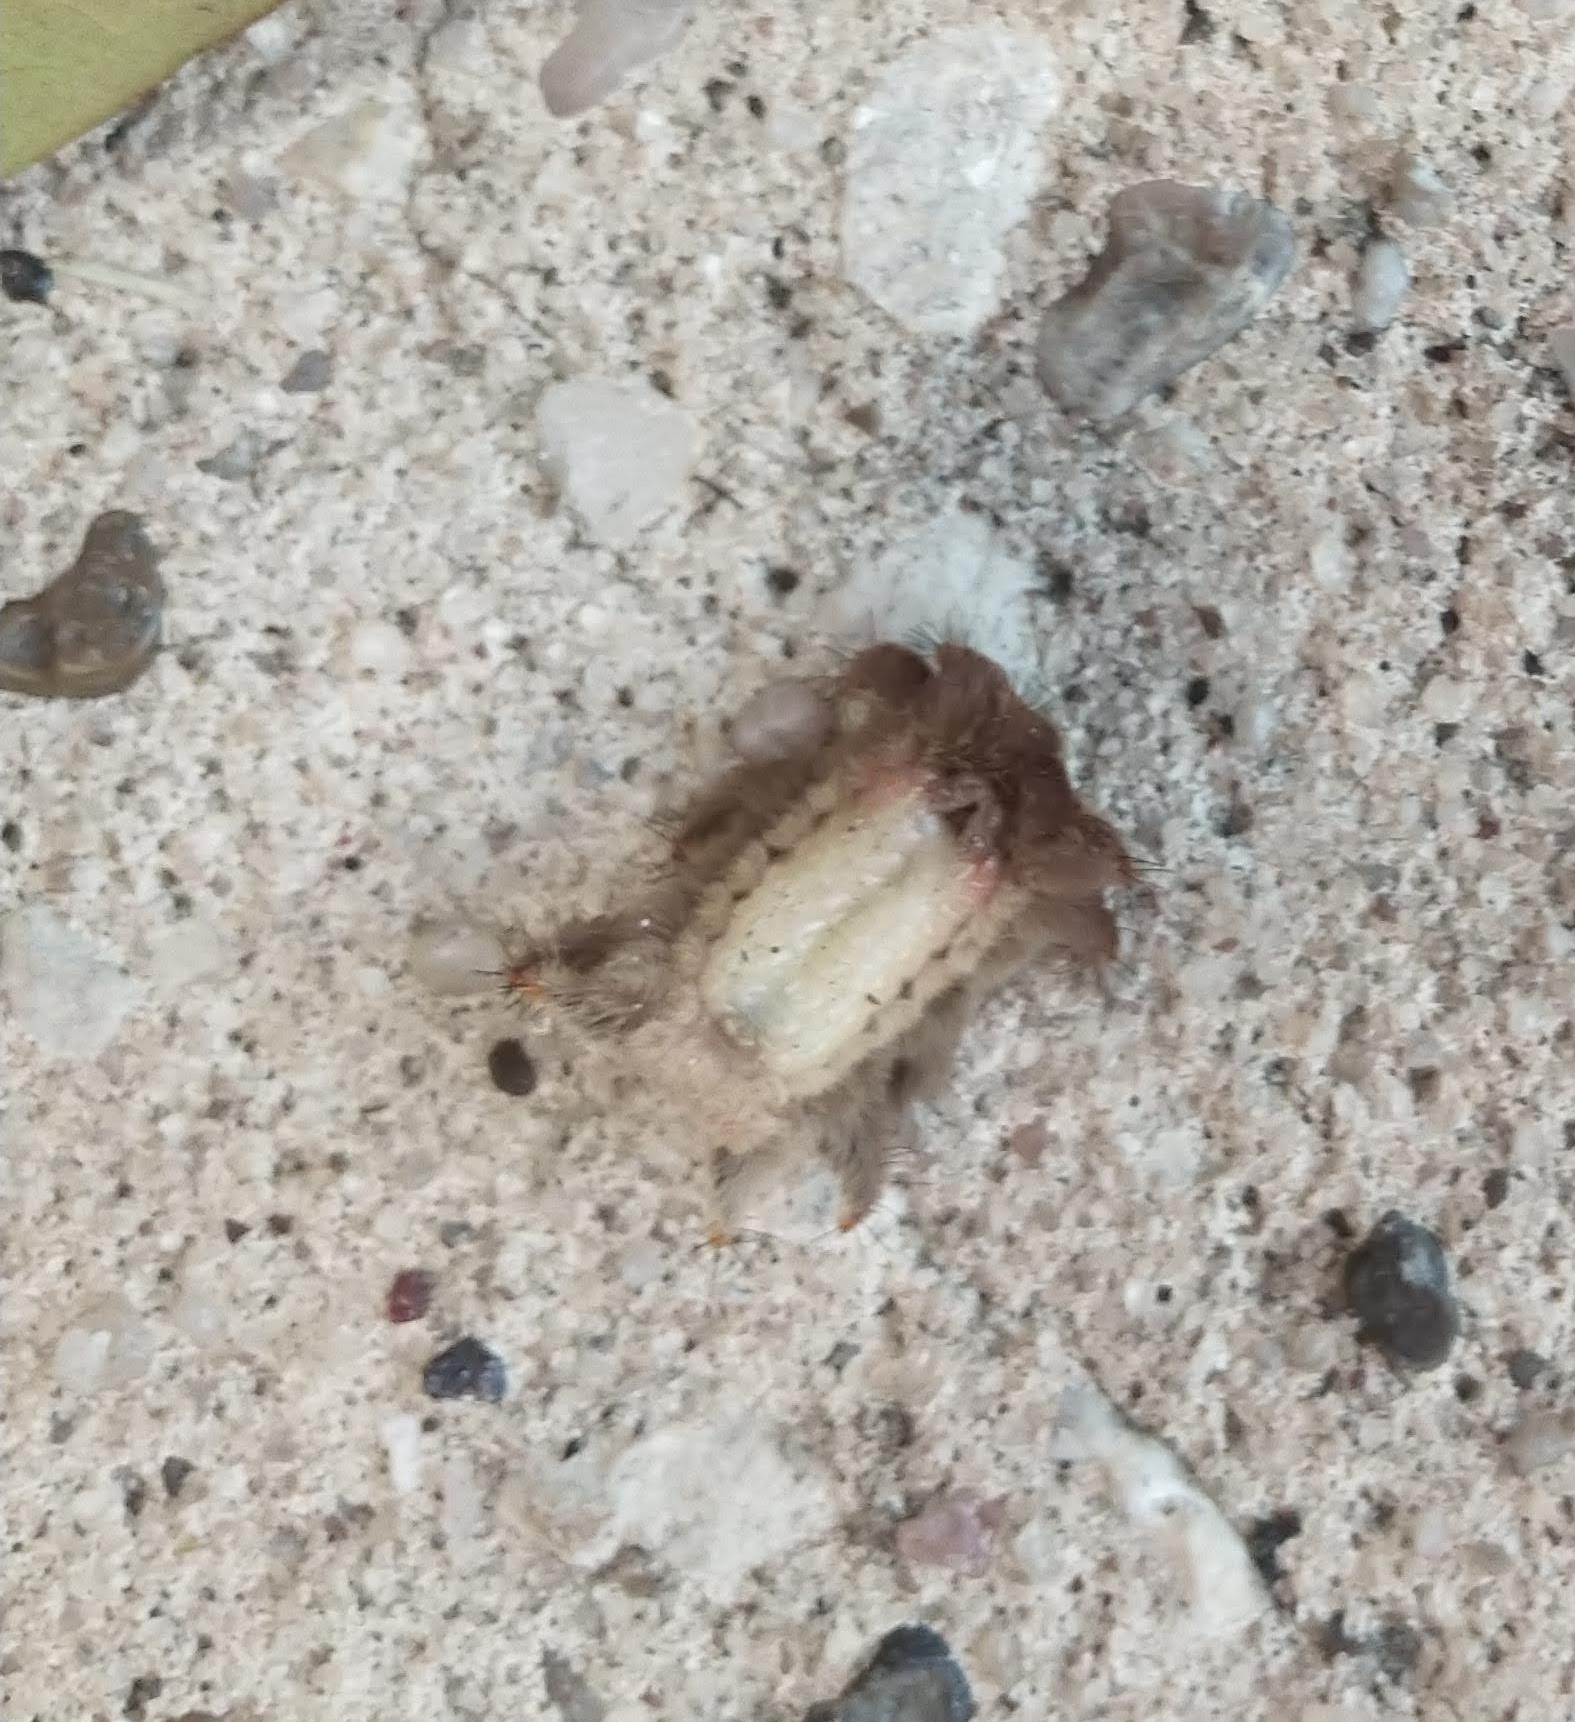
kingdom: Animalia
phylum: Arthropoda
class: Insecta
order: Lepidoptera
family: Limacodidae
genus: Phobetron
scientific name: Phobetron pithecium
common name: Hag moth
